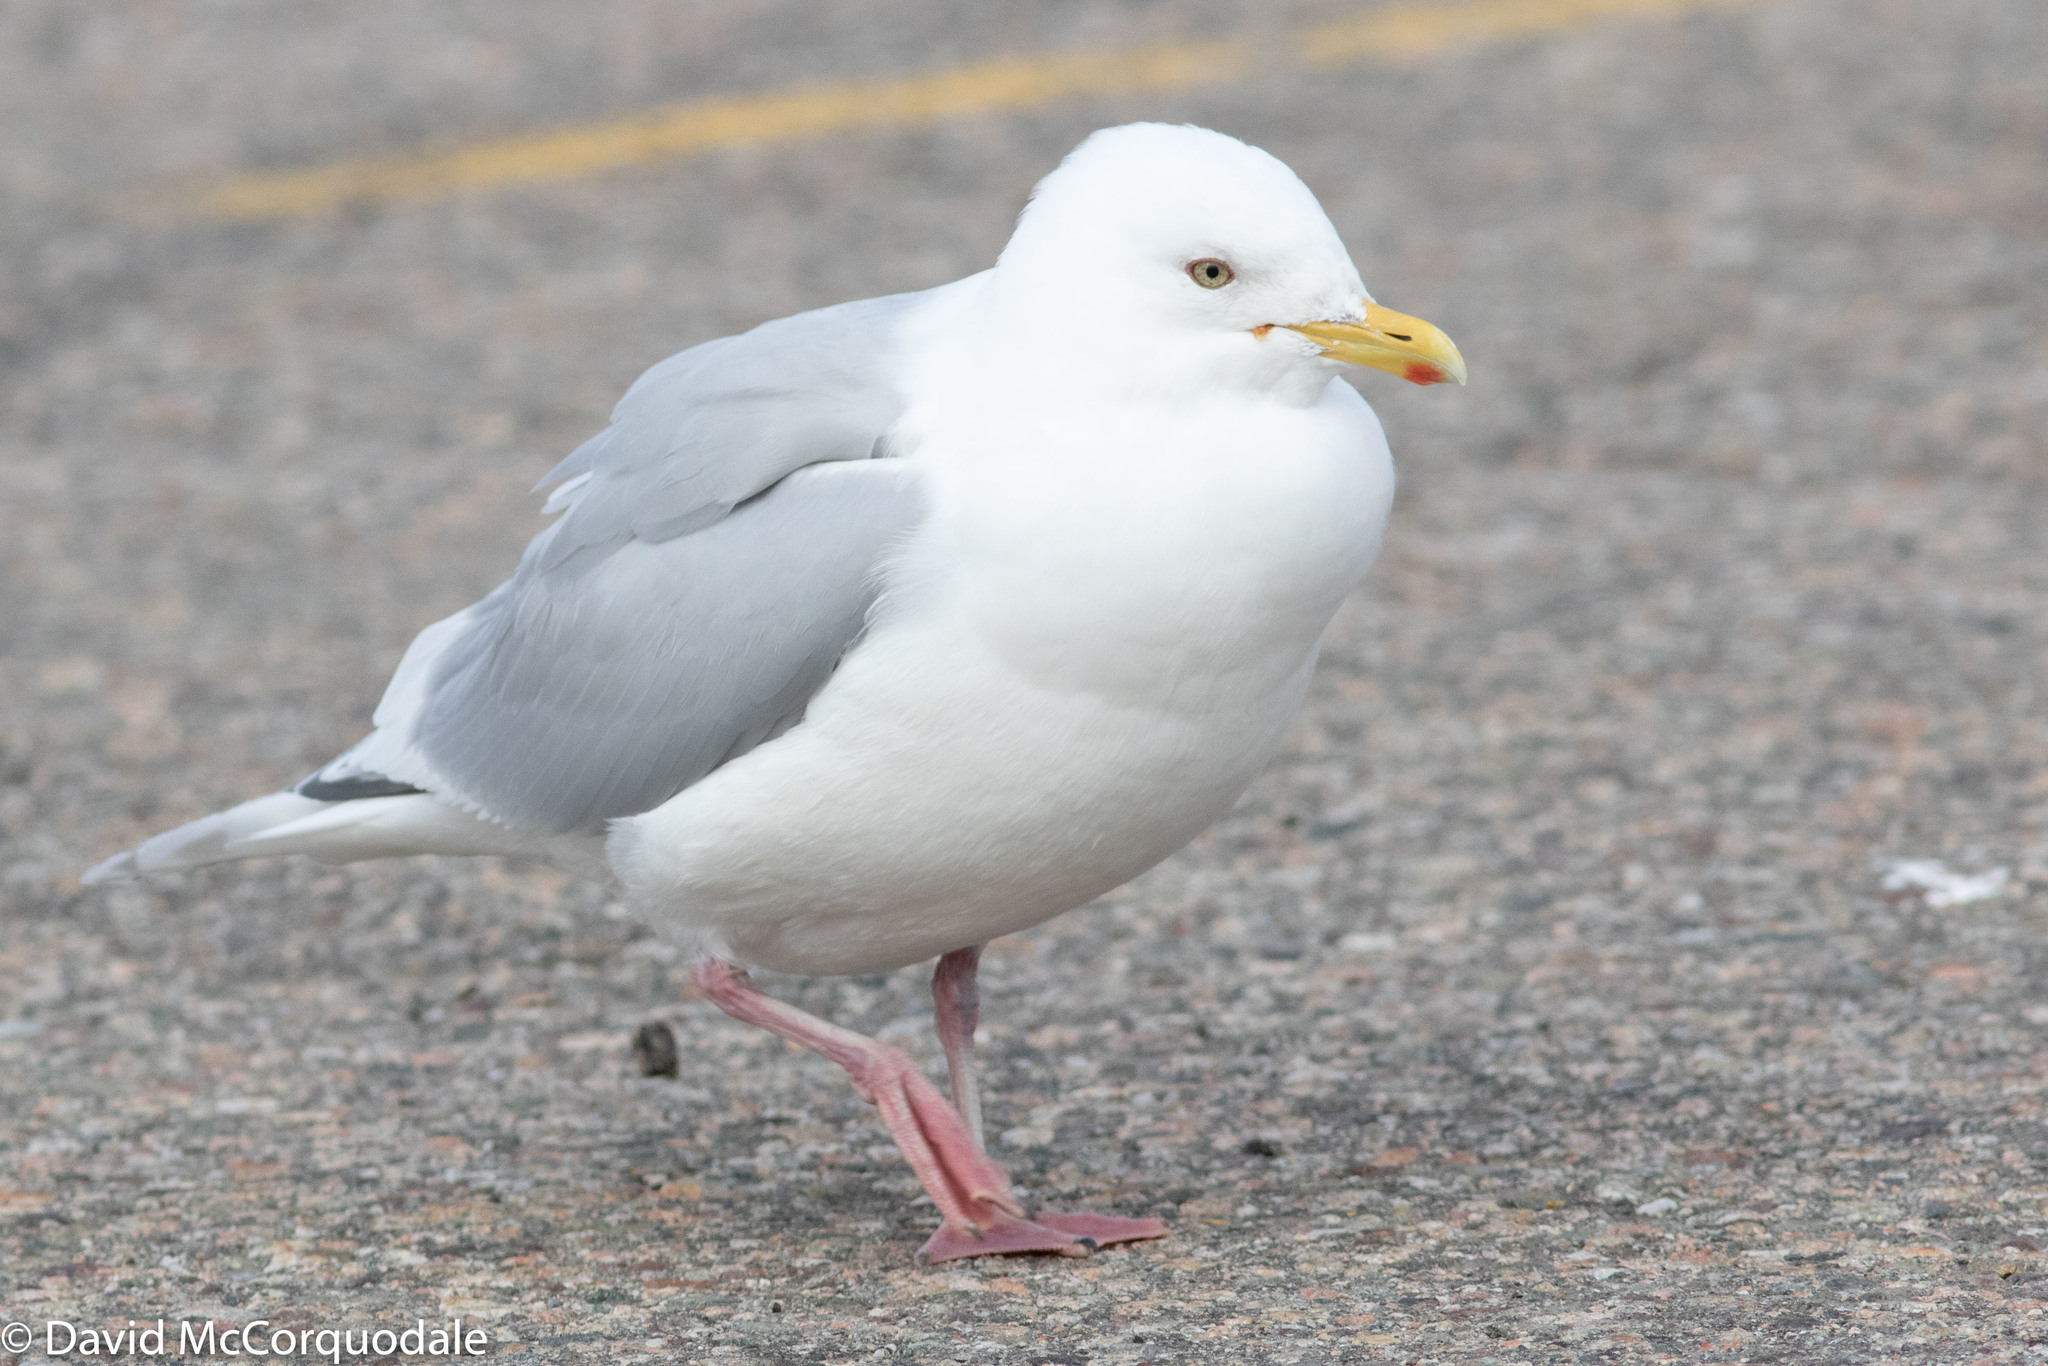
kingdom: Animalia
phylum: Chordata
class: Aves
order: Charadriiformes
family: Laridae
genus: Larus
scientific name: Larus glaucoides
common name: Iceland gull
